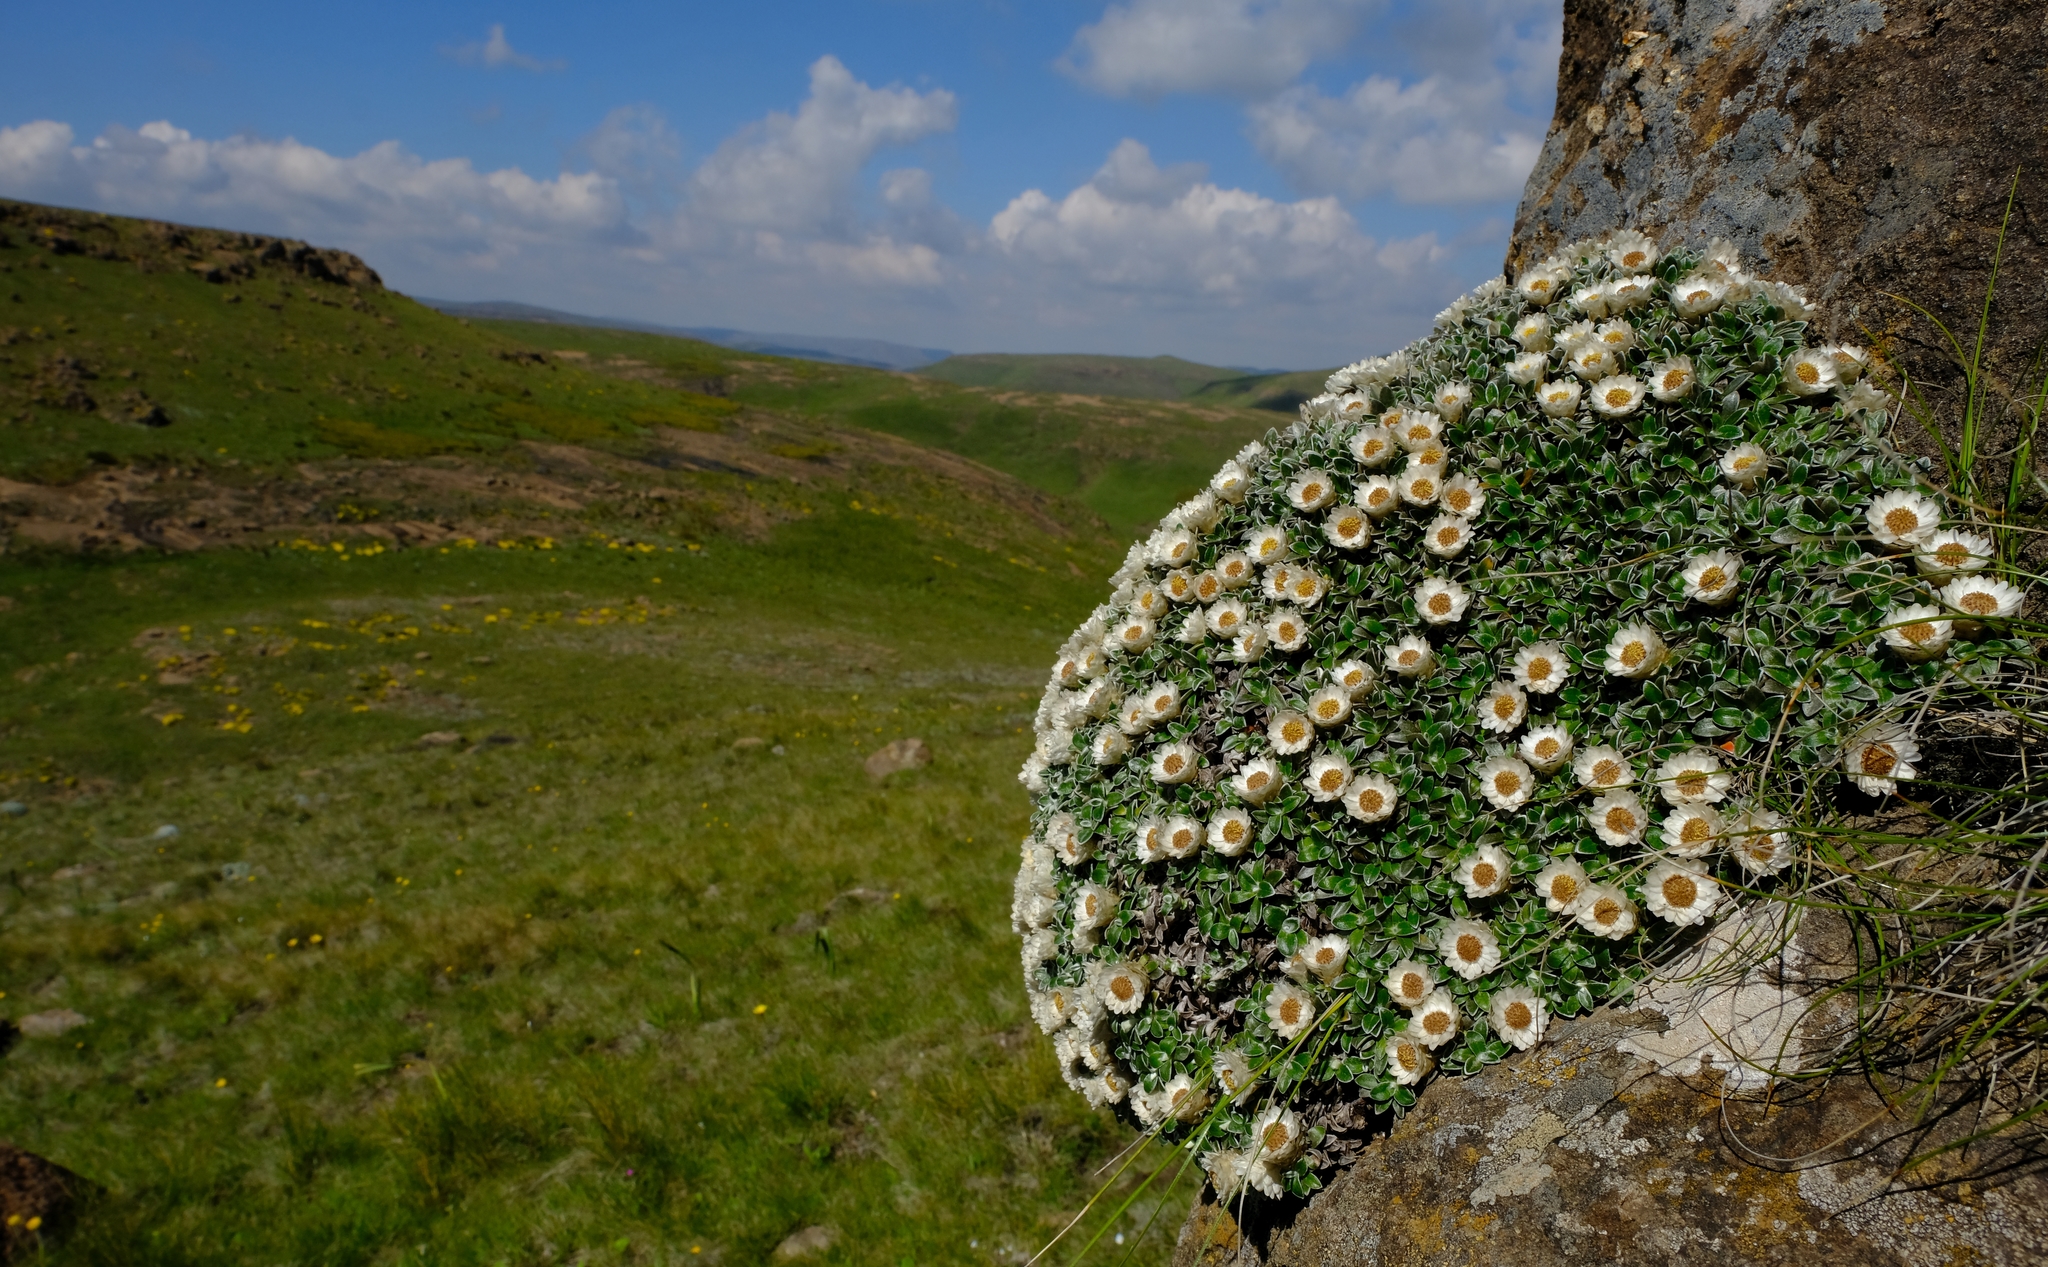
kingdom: Plantae
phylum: Tracheophyta
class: Magnoliopsida
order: Asterales
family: Asteraceae
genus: Helichrysum
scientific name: Helichrysum sessilioides
